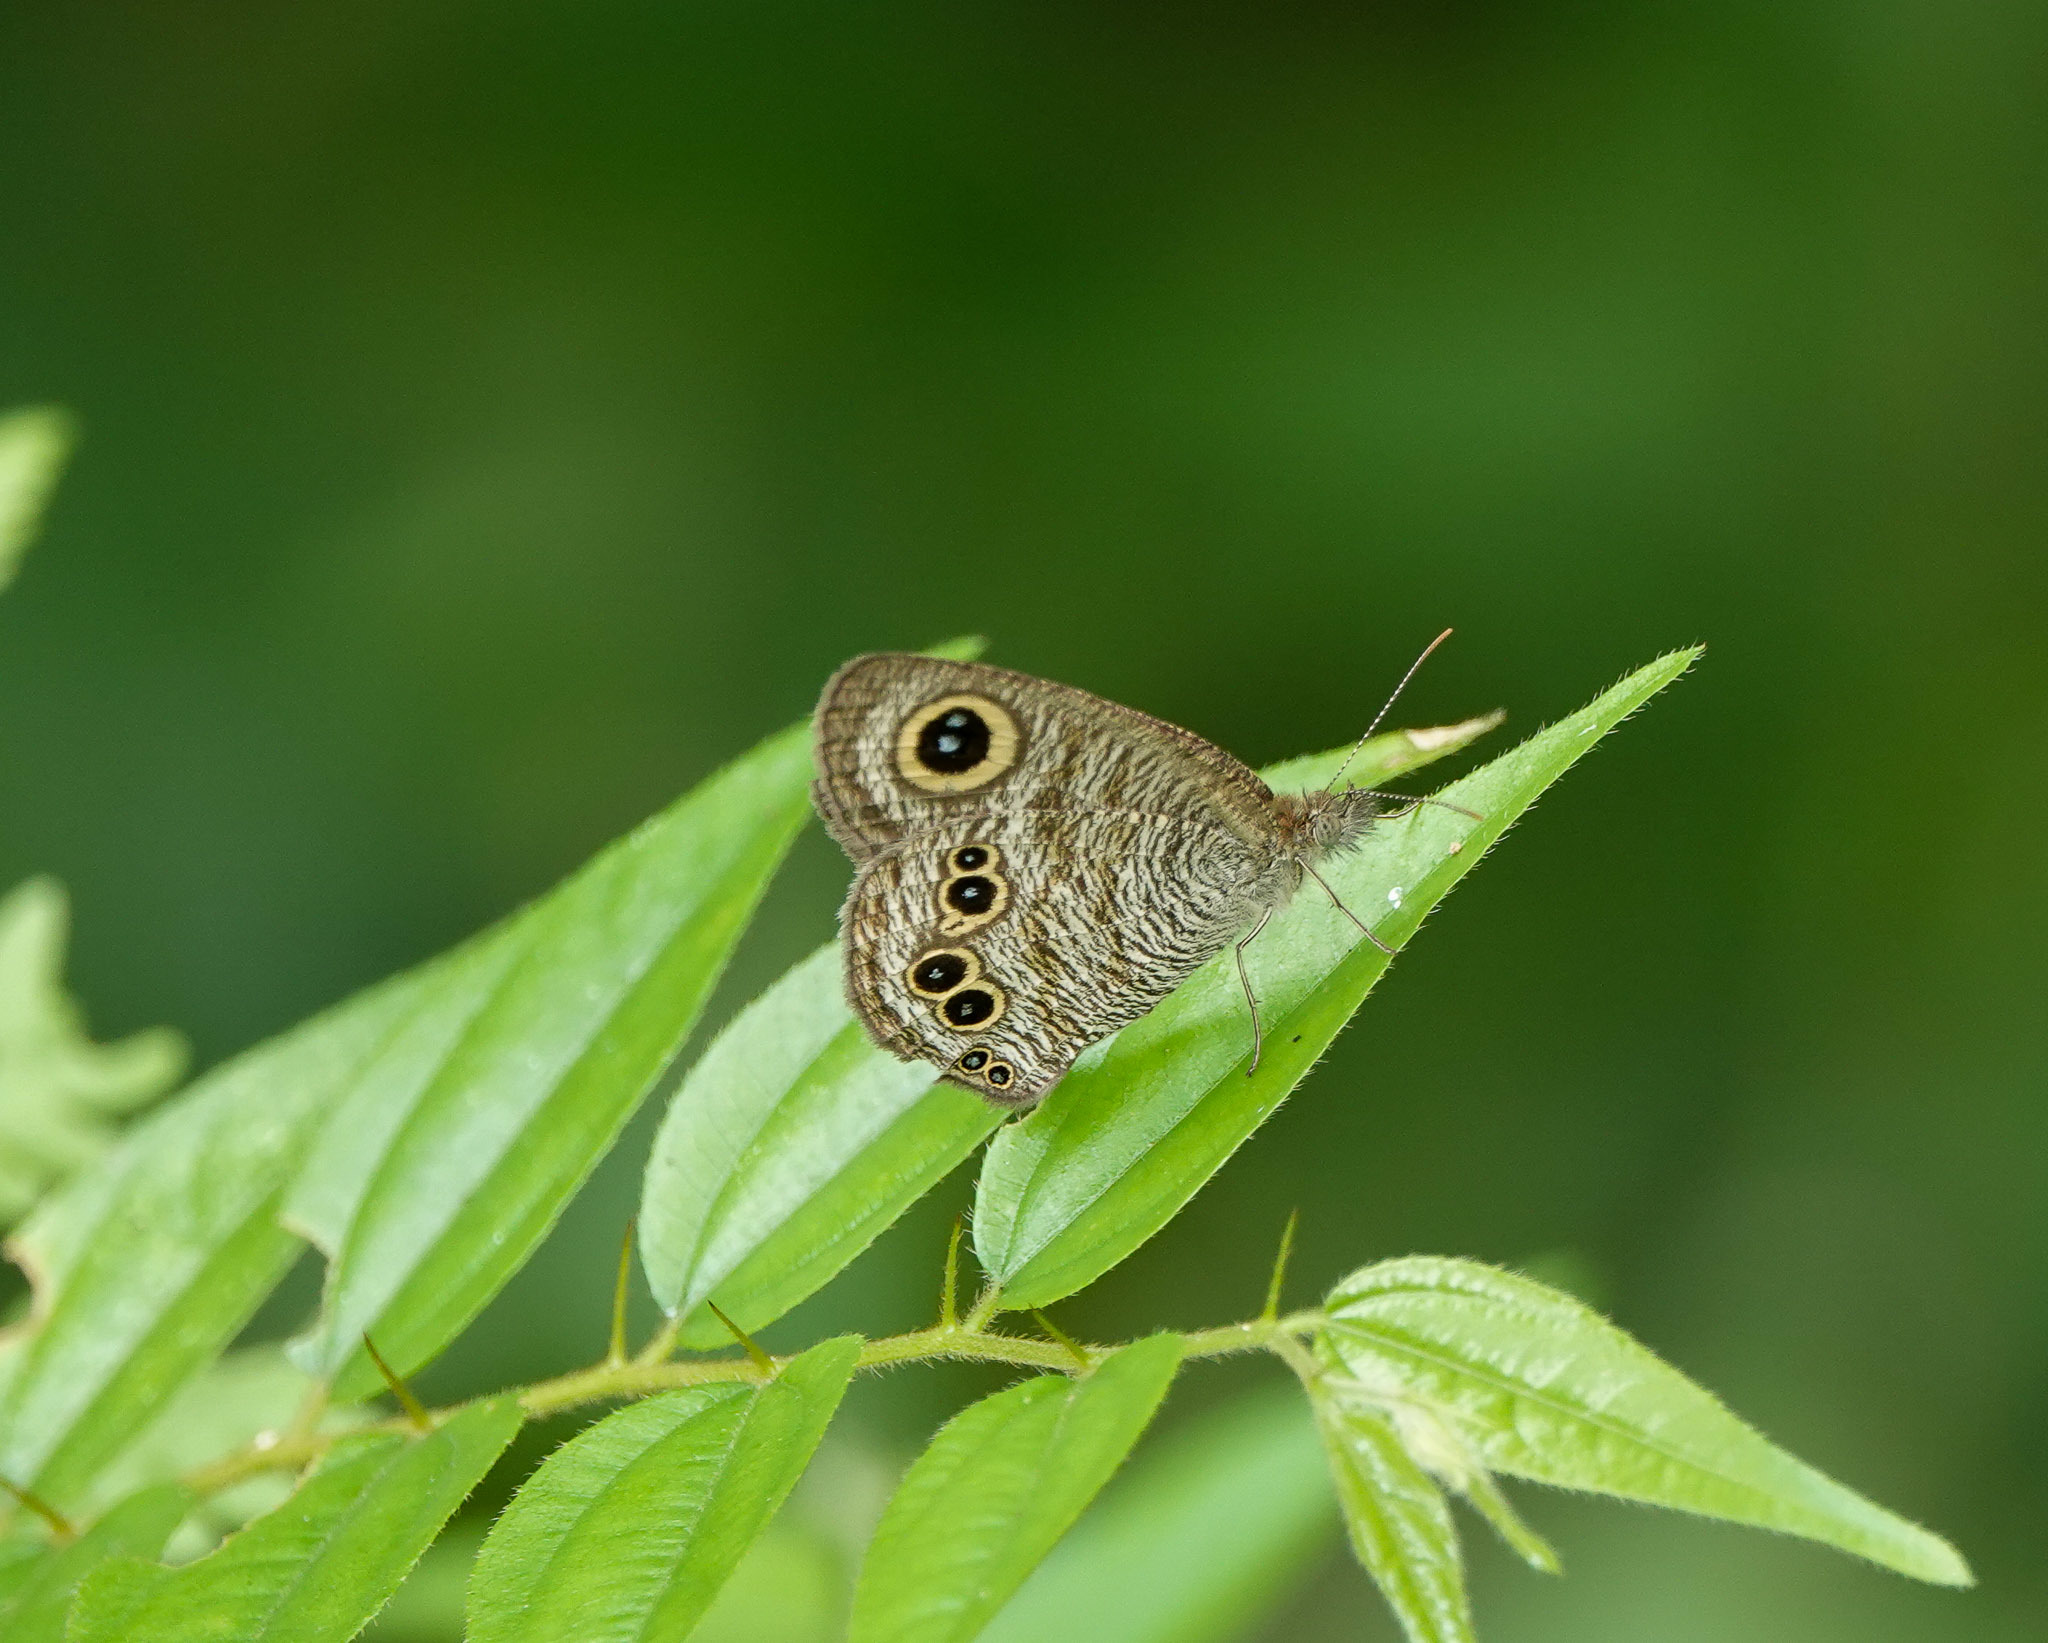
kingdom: Animalia
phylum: Arthropoda
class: Insecta
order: Lepidoptera
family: Nymphalidae
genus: Ypthima
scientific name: Ypthima baldus
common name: Common five-ring
